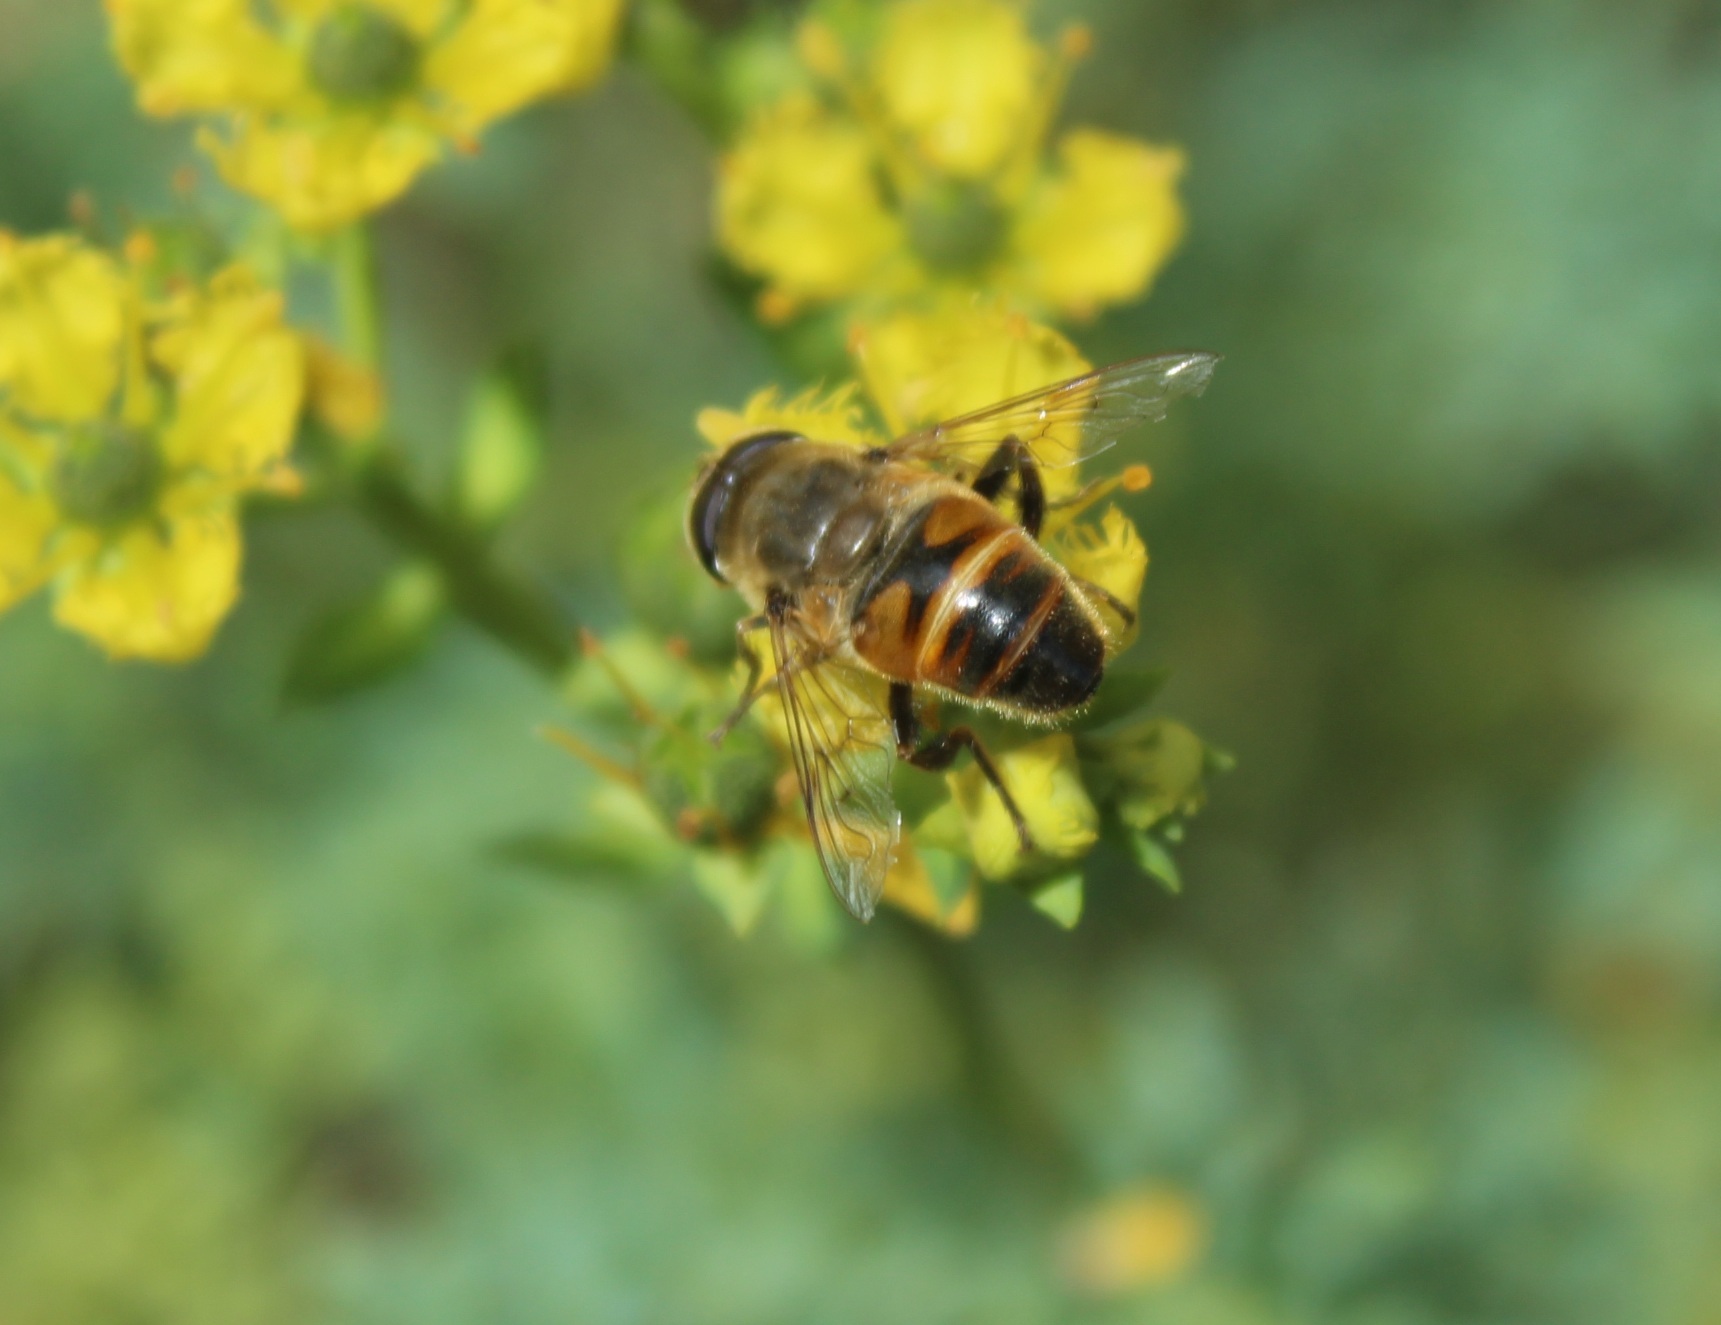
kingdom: Animalia
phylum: Arthropoda
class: Insecta
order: Diptera
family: Syrphidae
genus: Eristalis
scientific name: Eristalis tenax
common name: Drone fly
